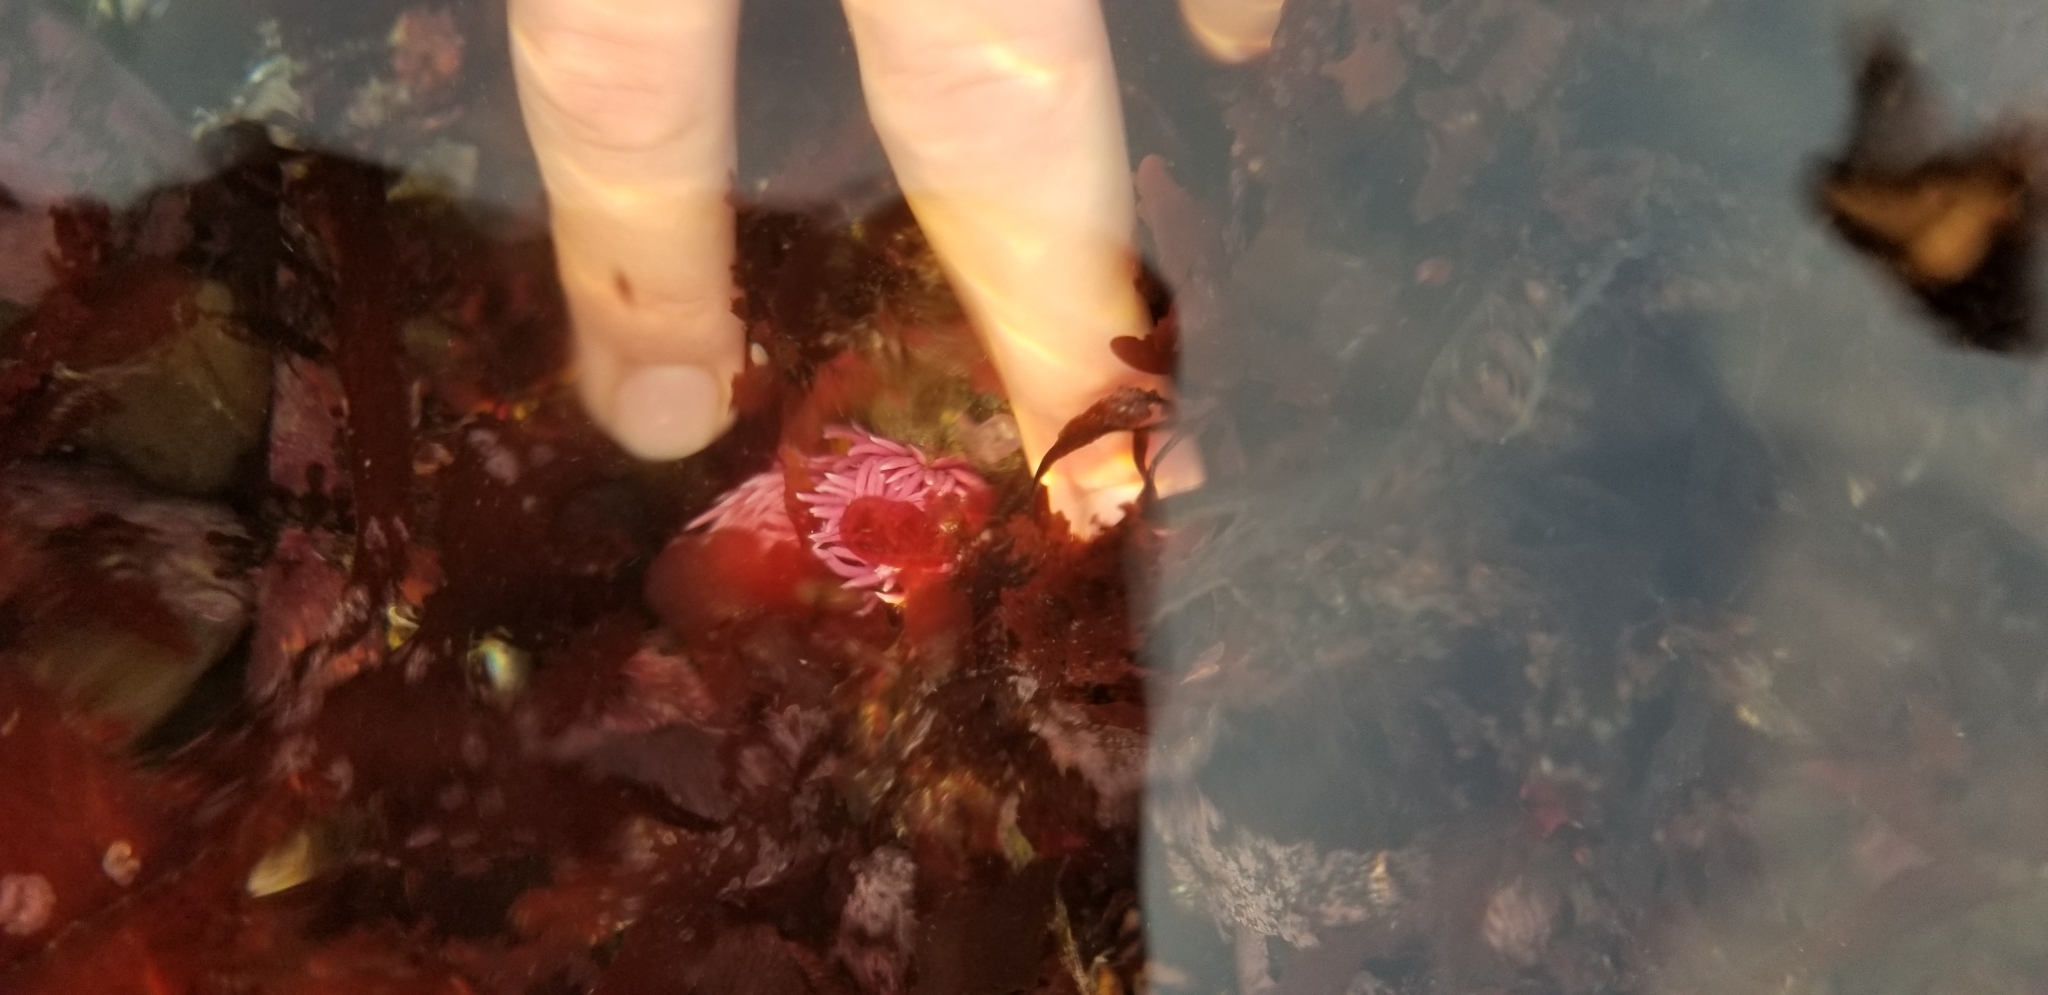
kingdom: Animalia
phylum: Mollusca
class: Gastropoda
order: Nudibranchia
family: Goniodorididae
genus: Okenia
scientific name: Okenia
